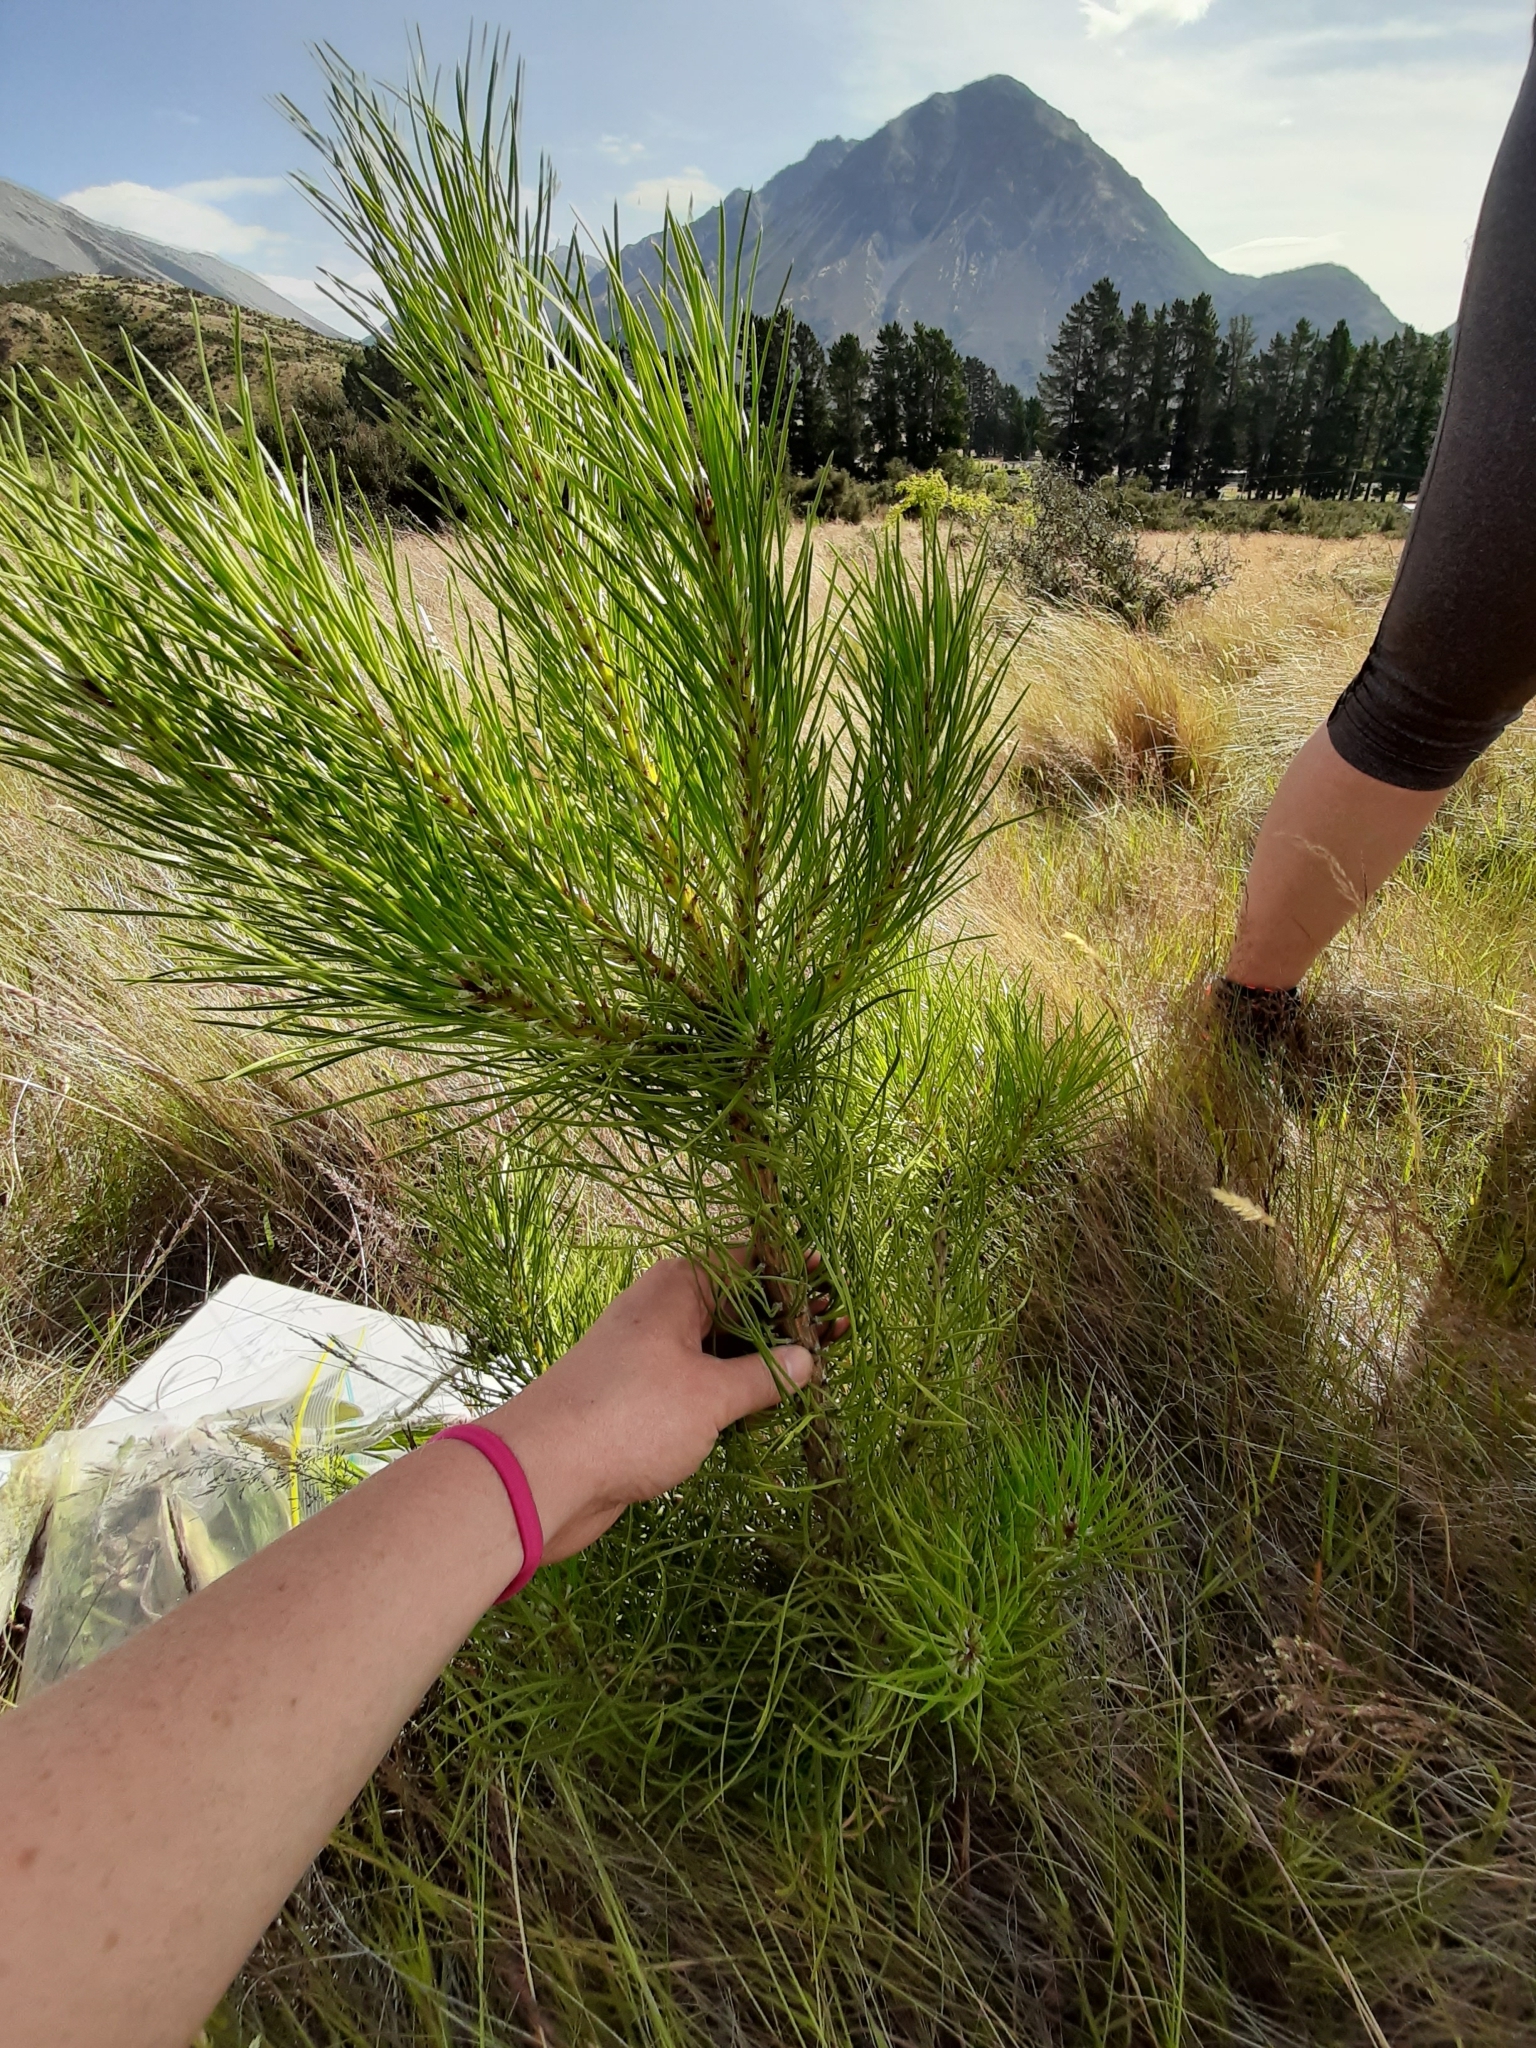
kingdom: Plantae
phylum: Tracheophyta
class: Pinopsida
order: Pinales
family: Pinaceae
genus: Pinus
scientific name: Pinus contorta
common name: Lodgepole pine
